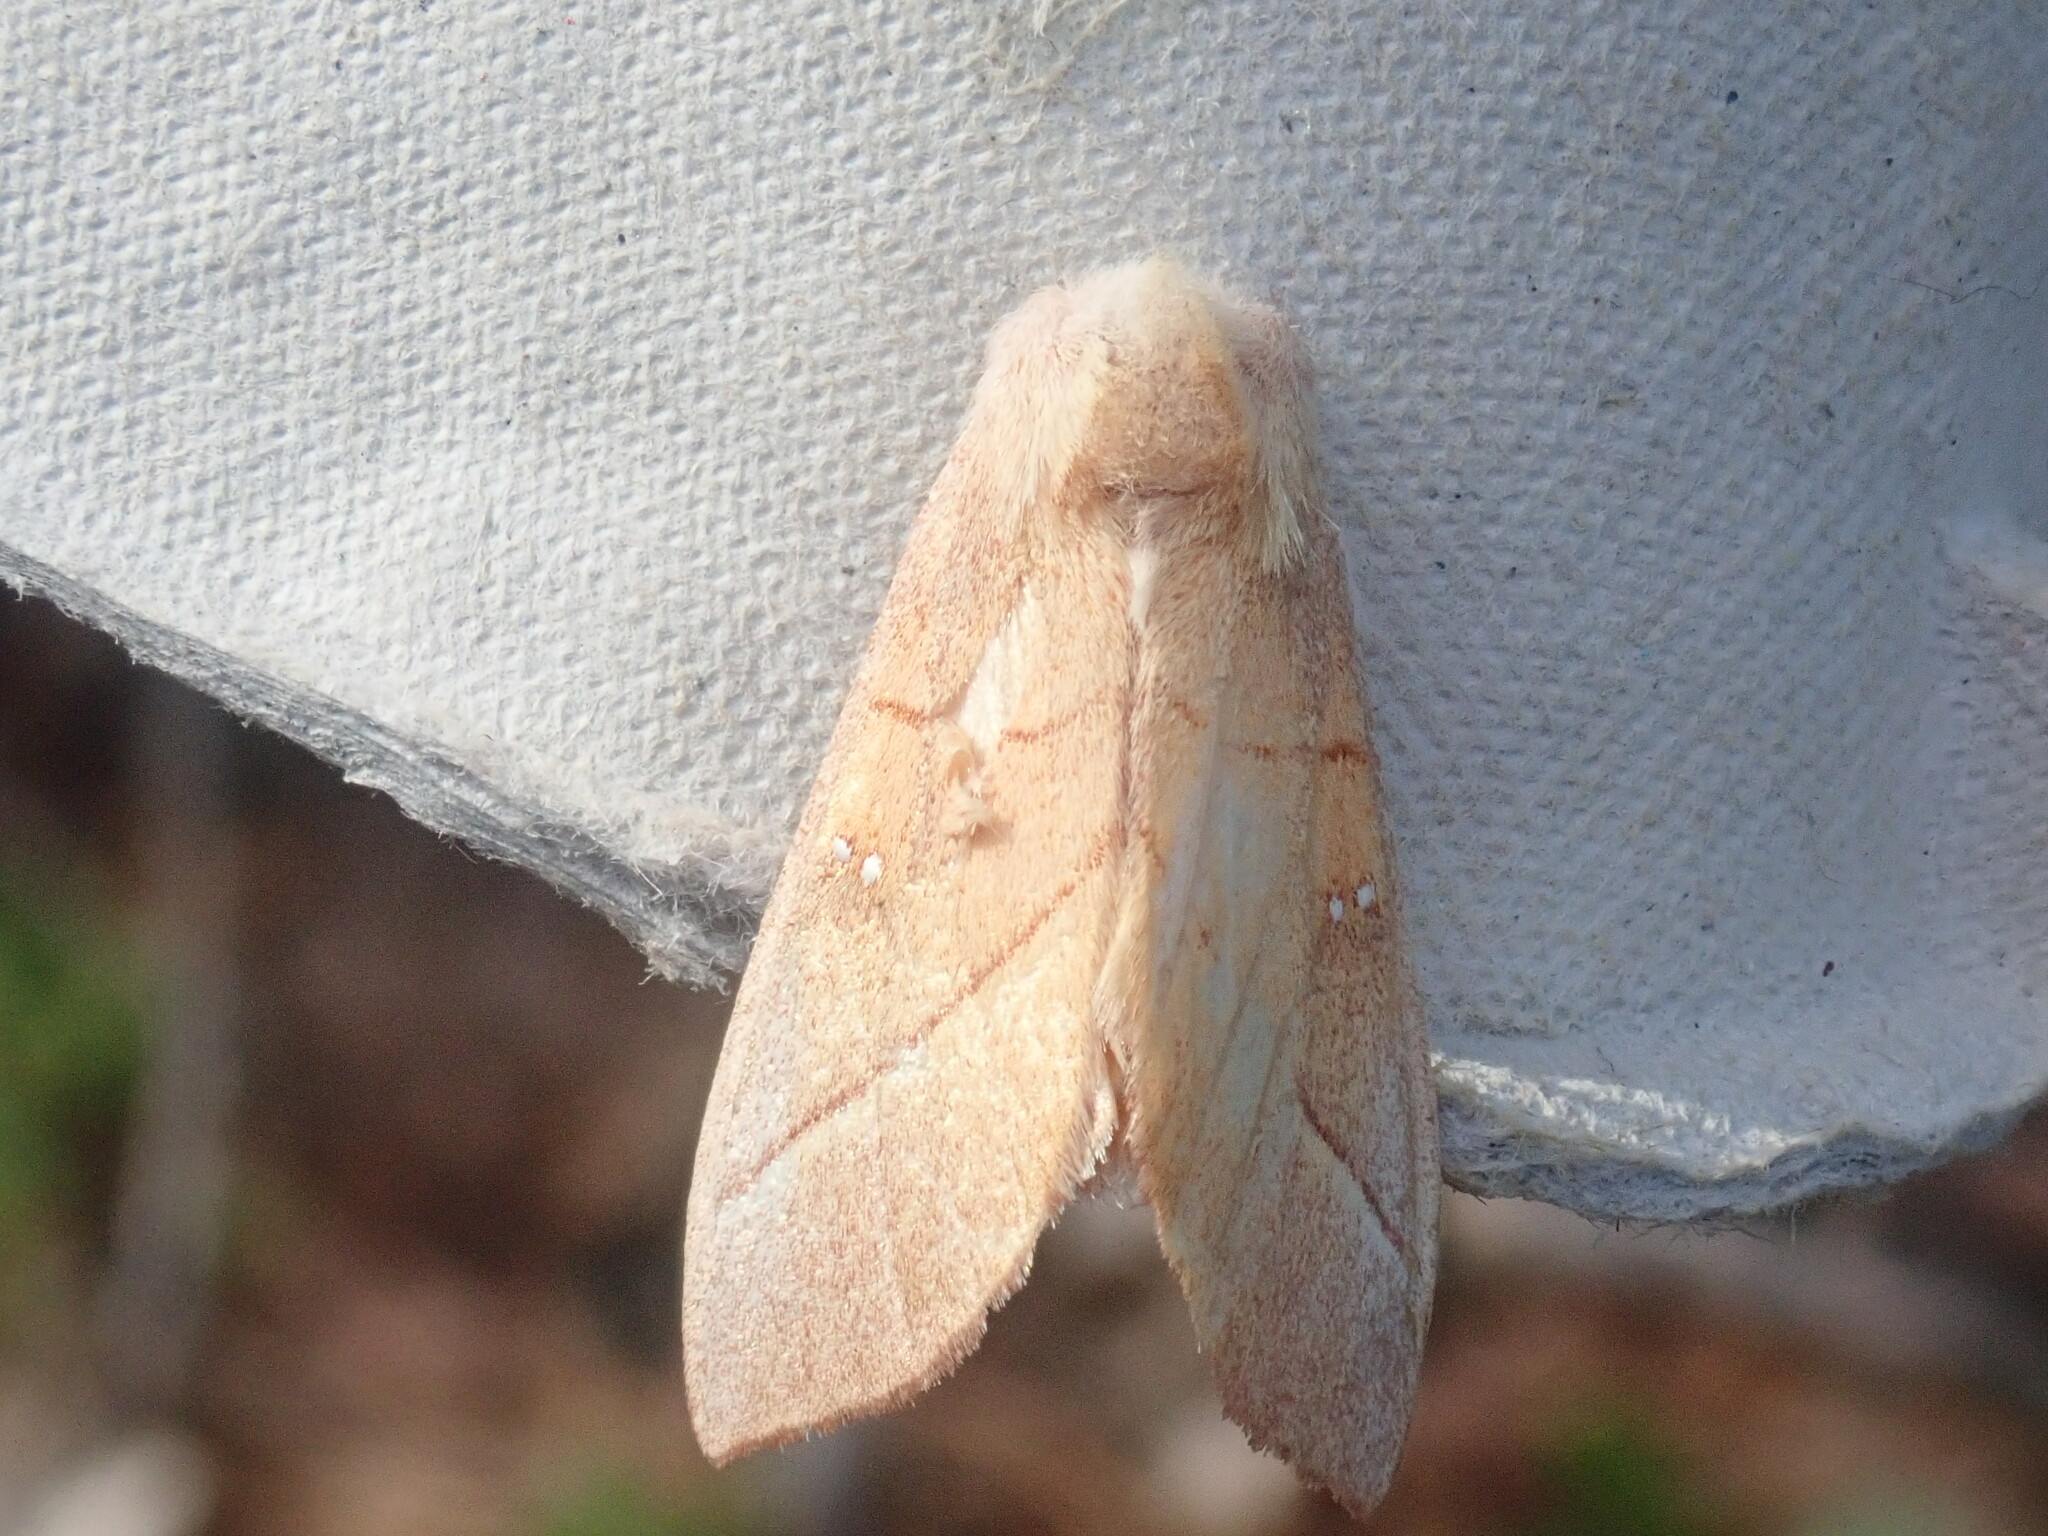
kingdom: Animalia
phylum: Arthropoda
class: Insecta
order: Lepidoptera
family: Notodontidae
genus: Nadata
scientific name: Nadata gibbosa
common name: White-dotted prominent
